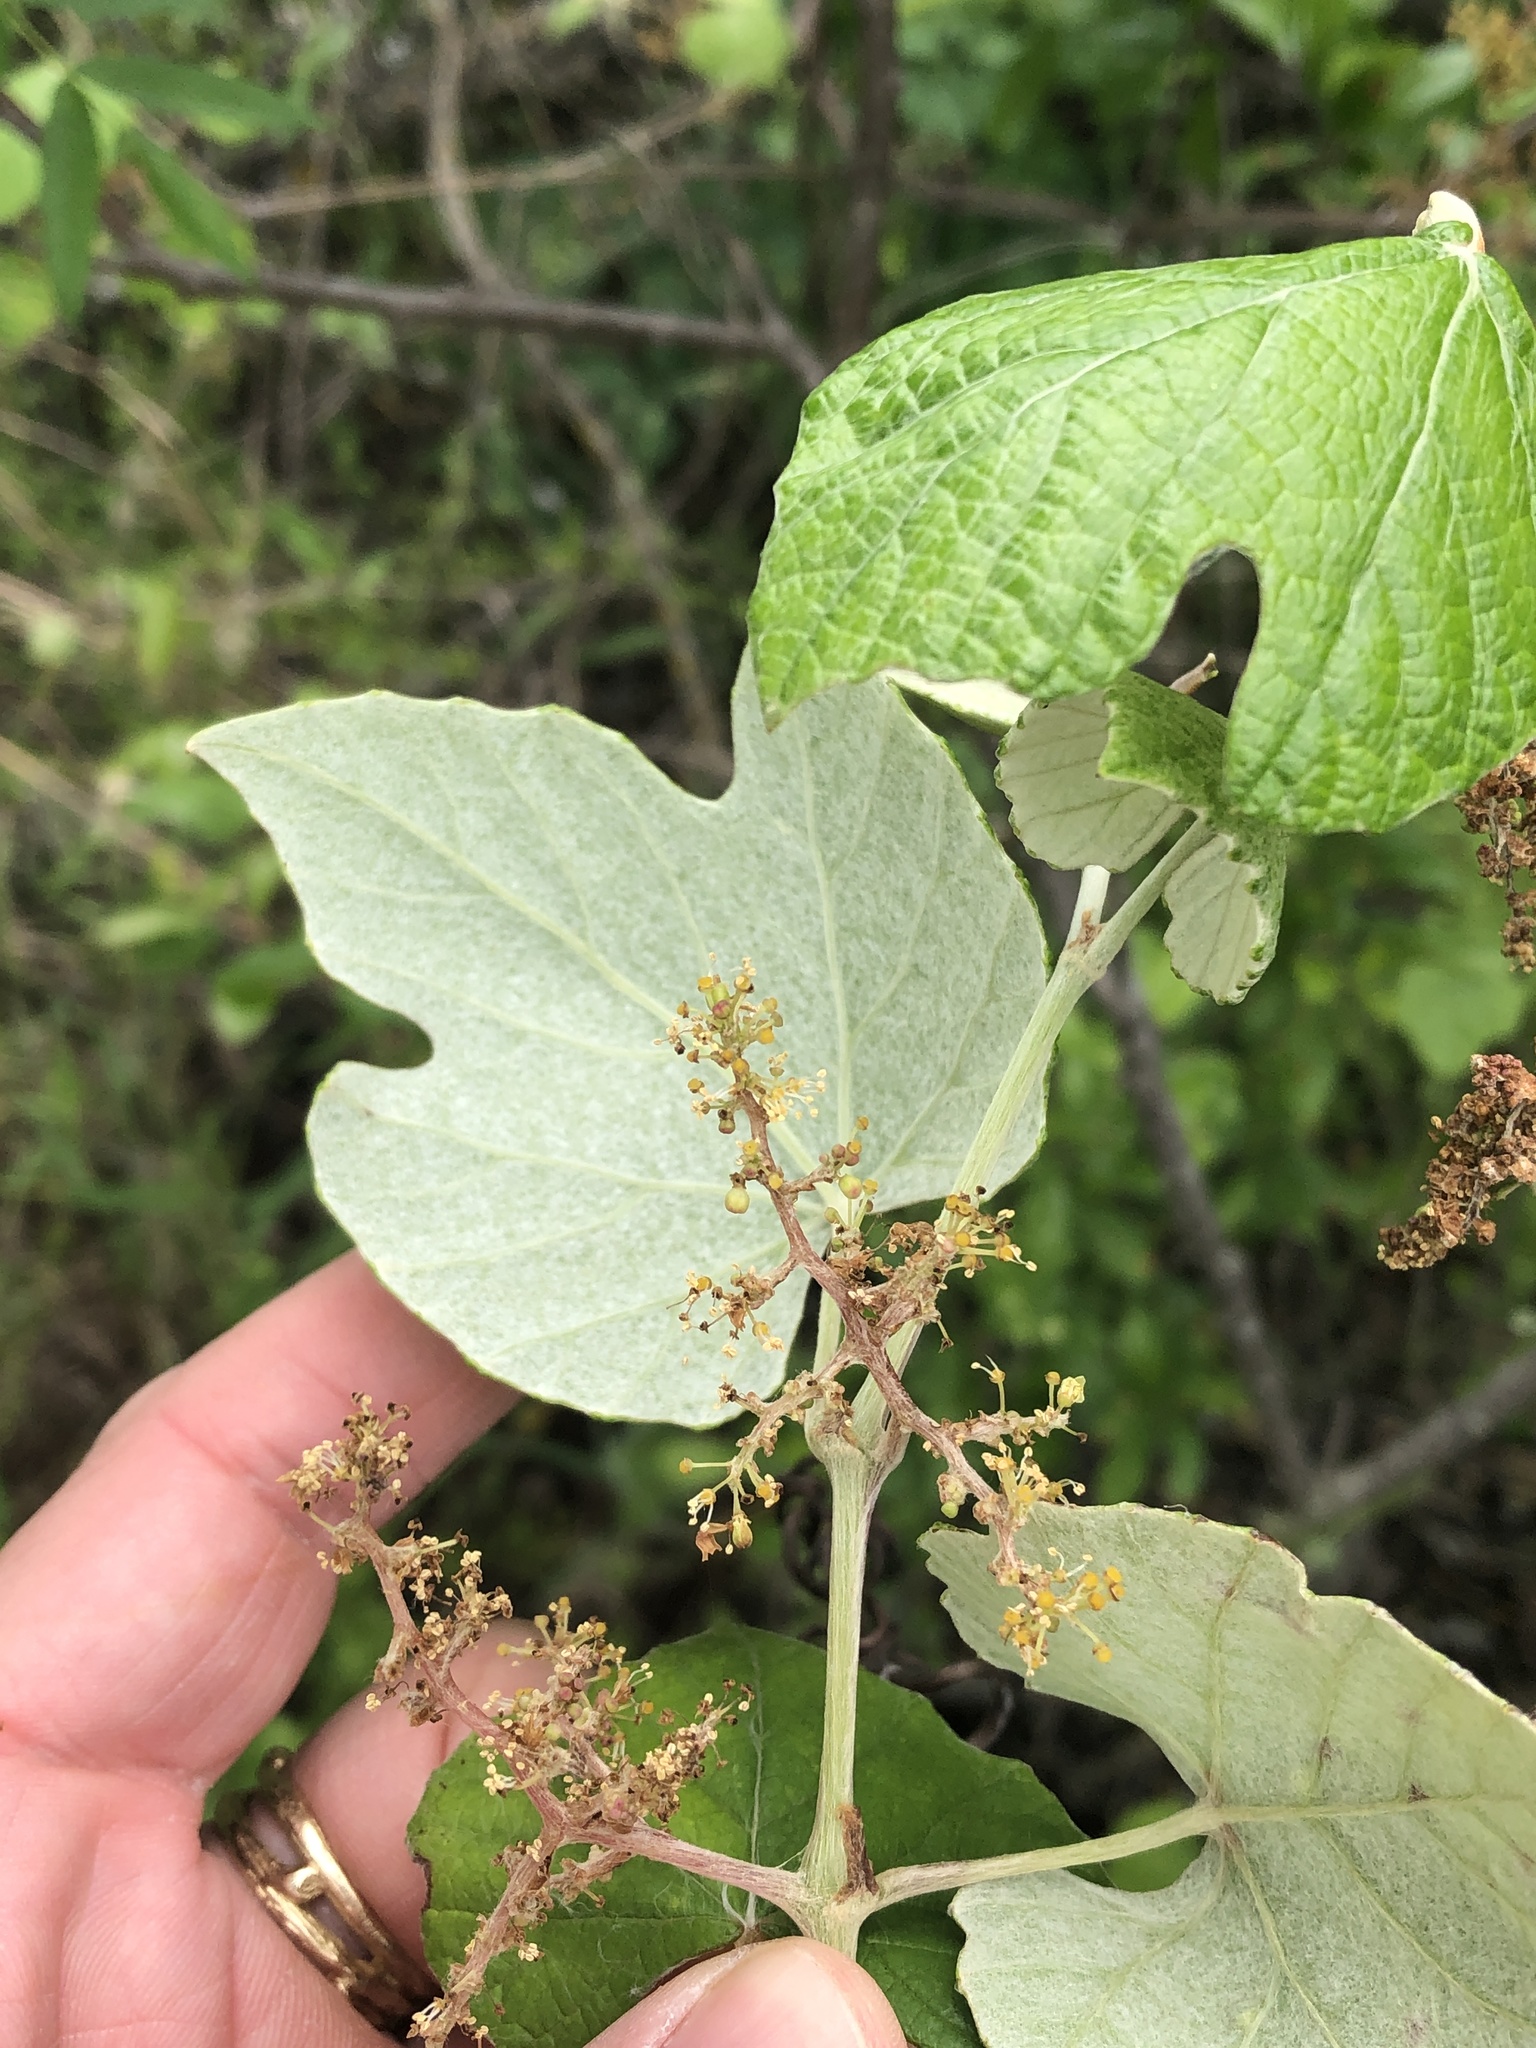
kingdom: Plantae
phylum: Tracheophyta
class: Magnoliopsida
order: Vitales
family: Vitaceae
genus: Vitis
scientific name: Vitis mustangensis
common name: Mustang grape
